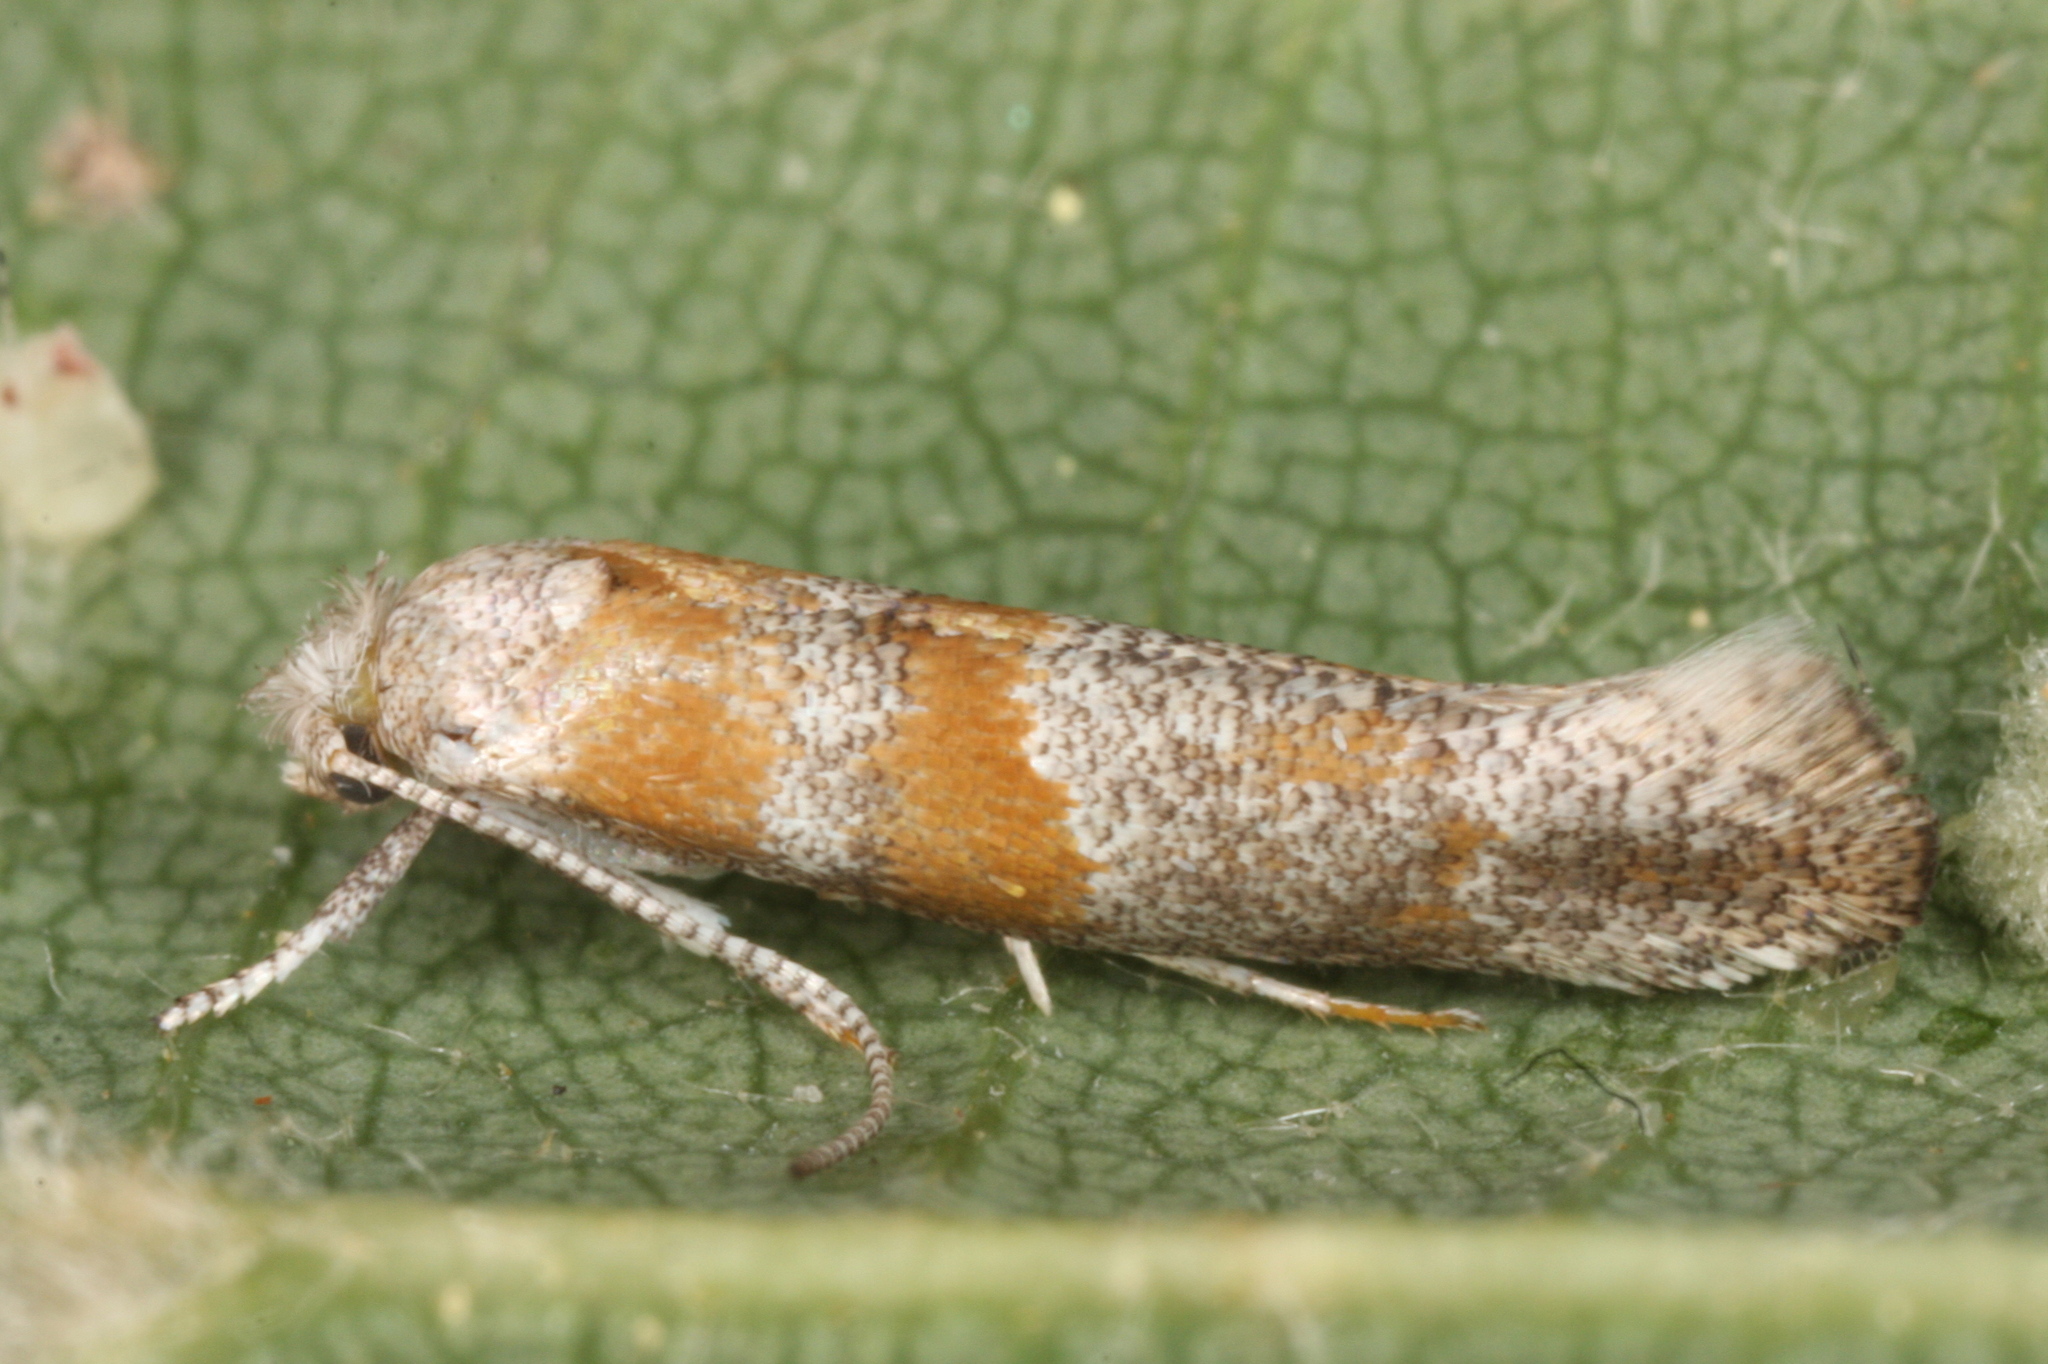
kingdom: Animalia
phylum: Arthropoda
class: Insecta
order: Lepidoptera
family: Yponomeutidae
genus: Cedestis
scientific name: Cedestis gysseleniella
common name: Gold pine ermel
